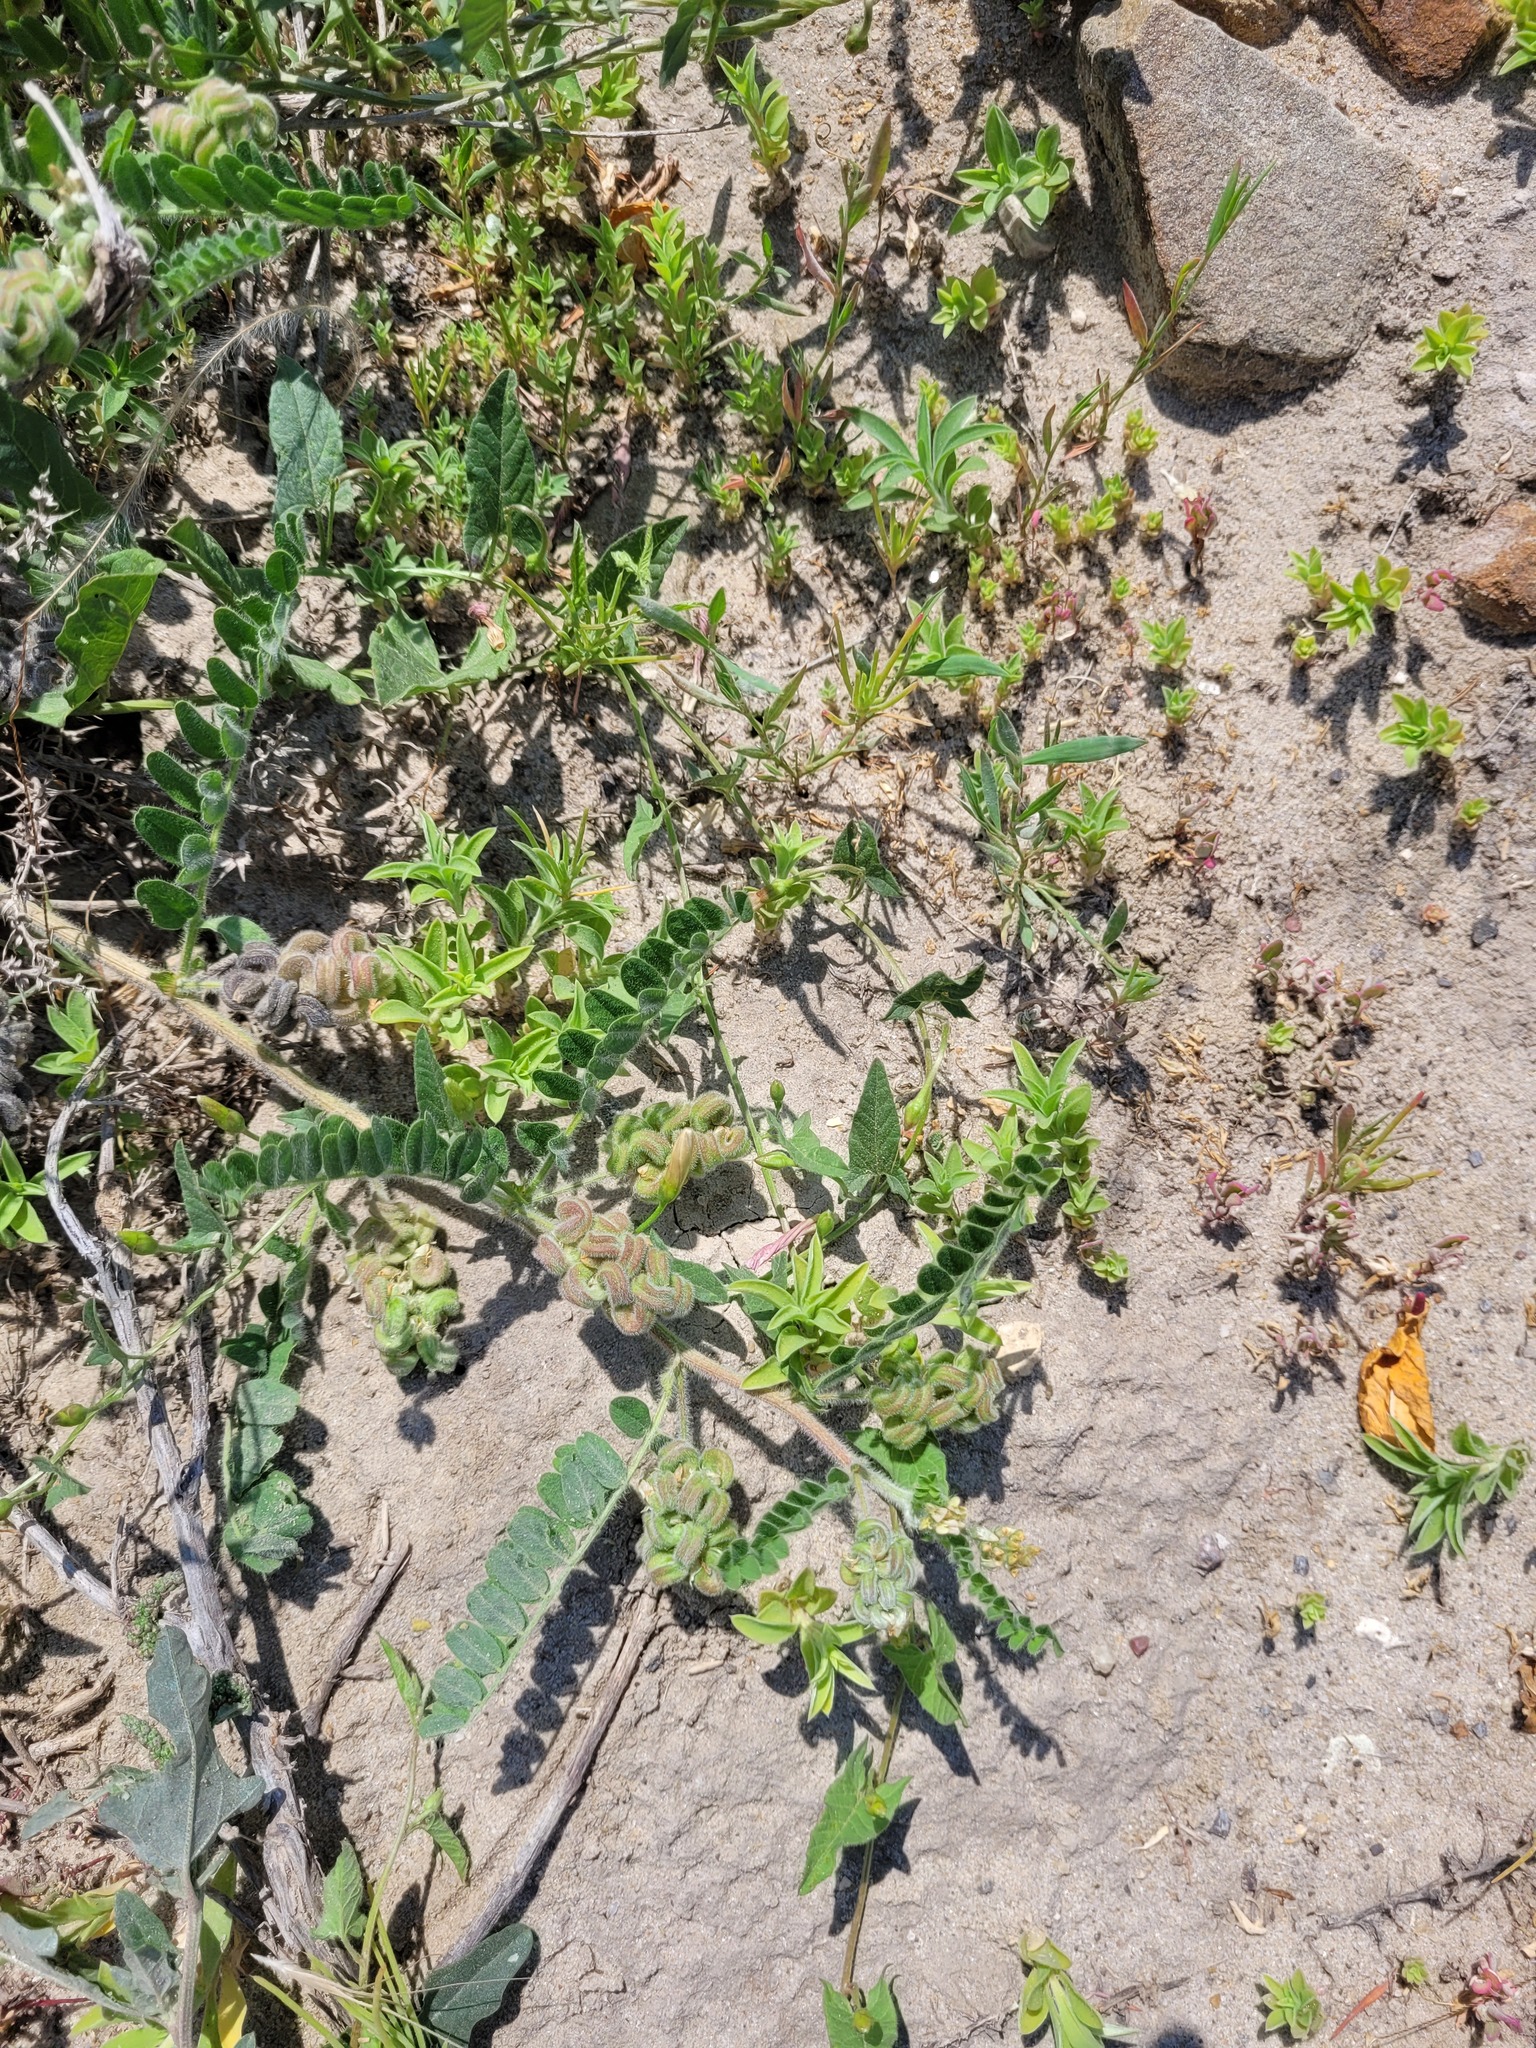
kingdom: Plantae
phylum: Tracheophyta
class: Magnoliopsida
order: Fabales
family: Fabaceae
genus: Astragalus
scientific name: Astragalus contortuplicatus
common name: Hungarian milkvetch
